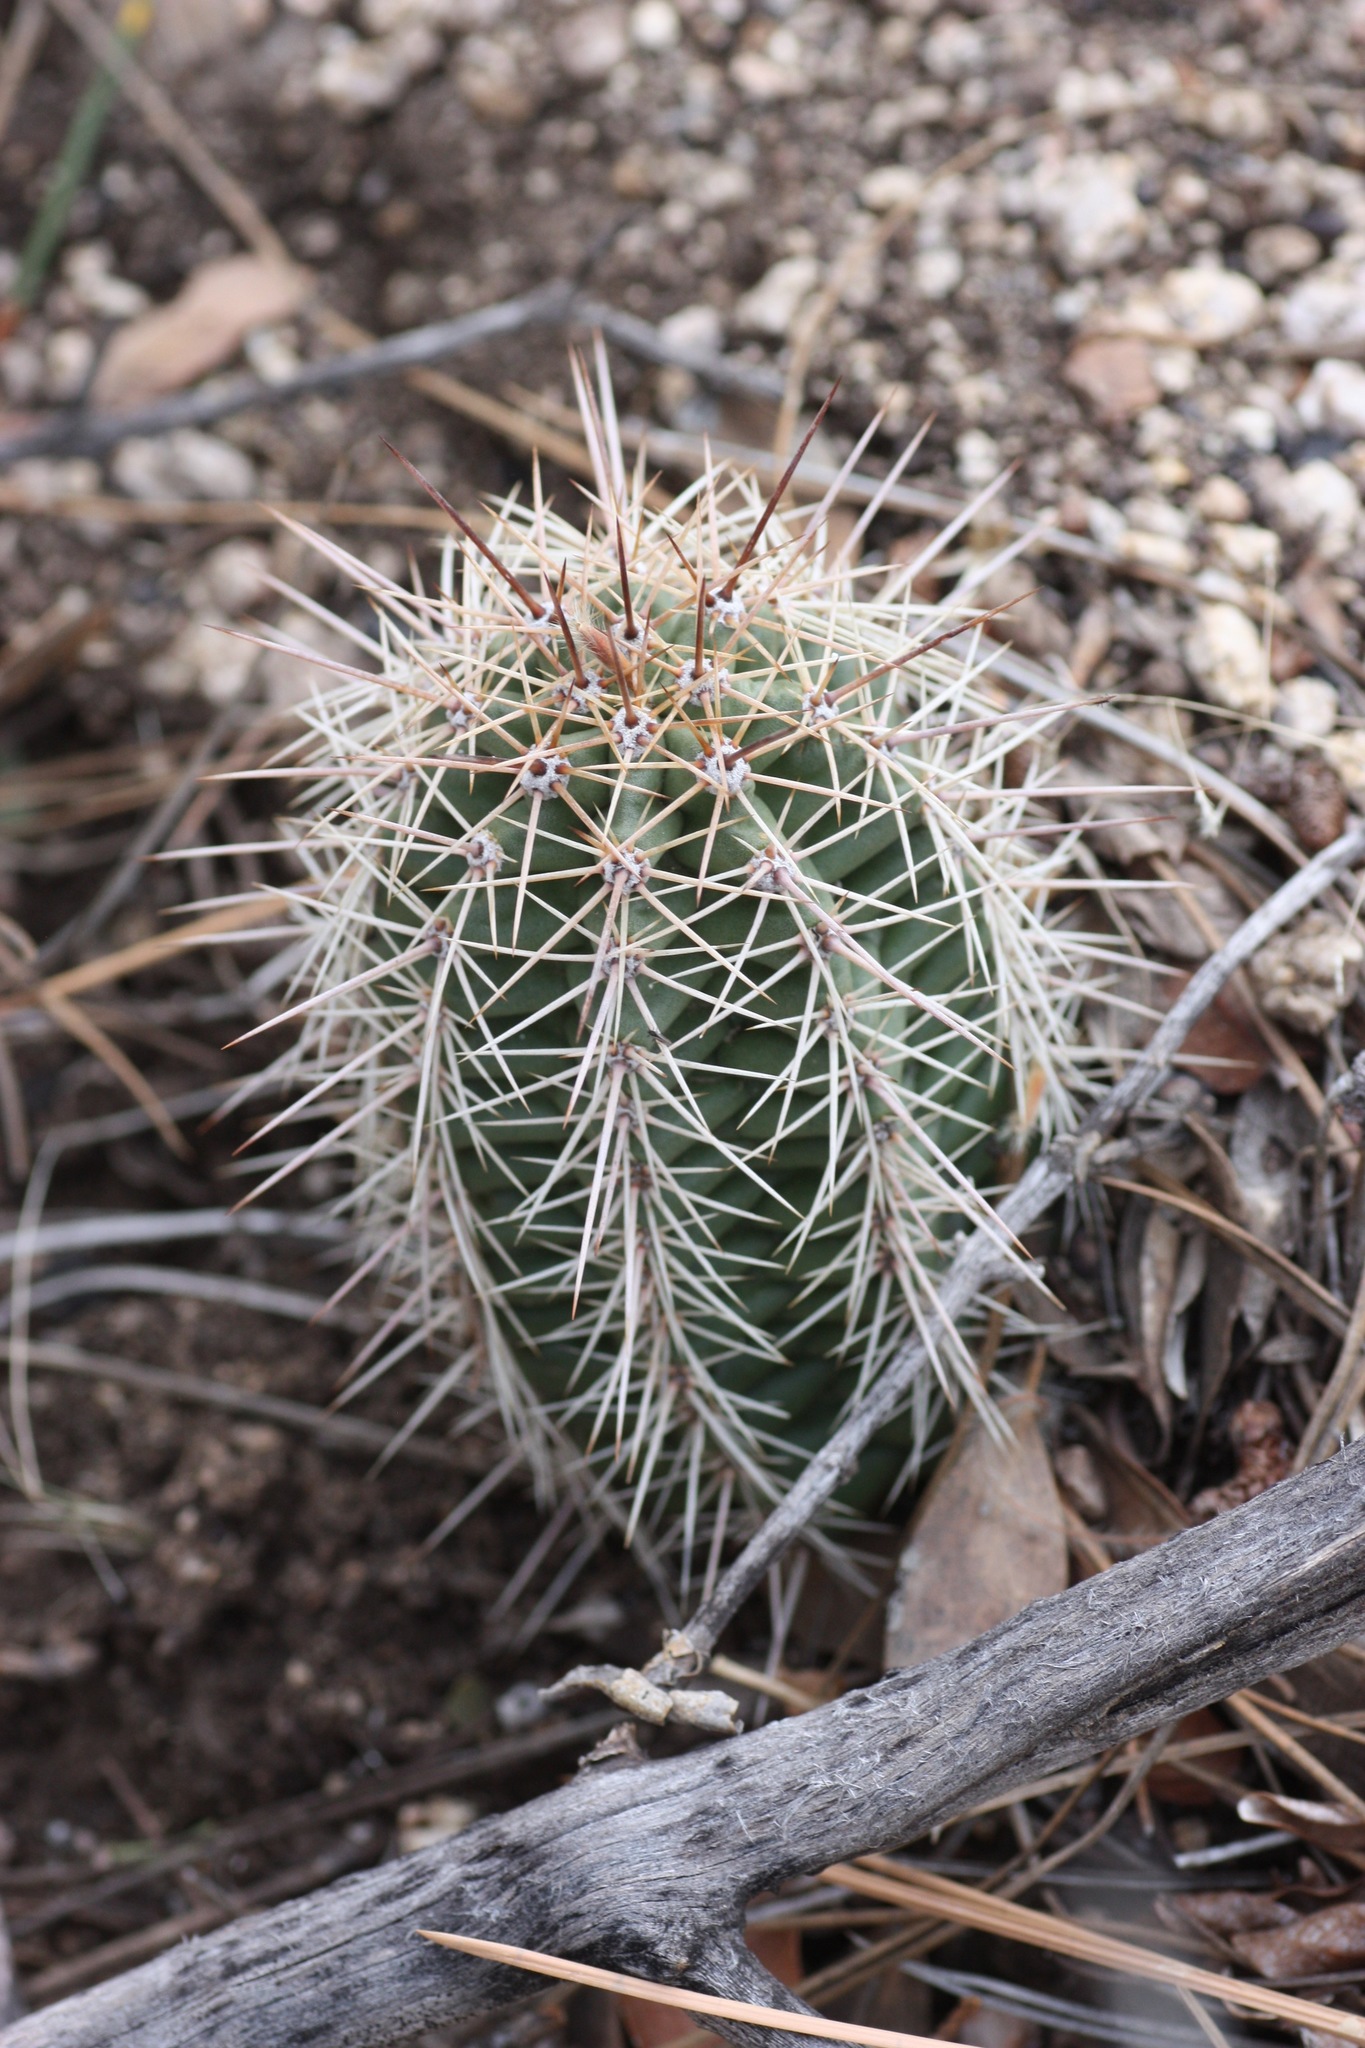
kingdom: Plantae
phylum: Tracheophyta
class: Magnoliopsida
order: Caryophyllales
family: Cactaceae
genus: Echinocereus
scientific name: Echinocereus coccineus
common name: Scarlet hedgehog cactus
